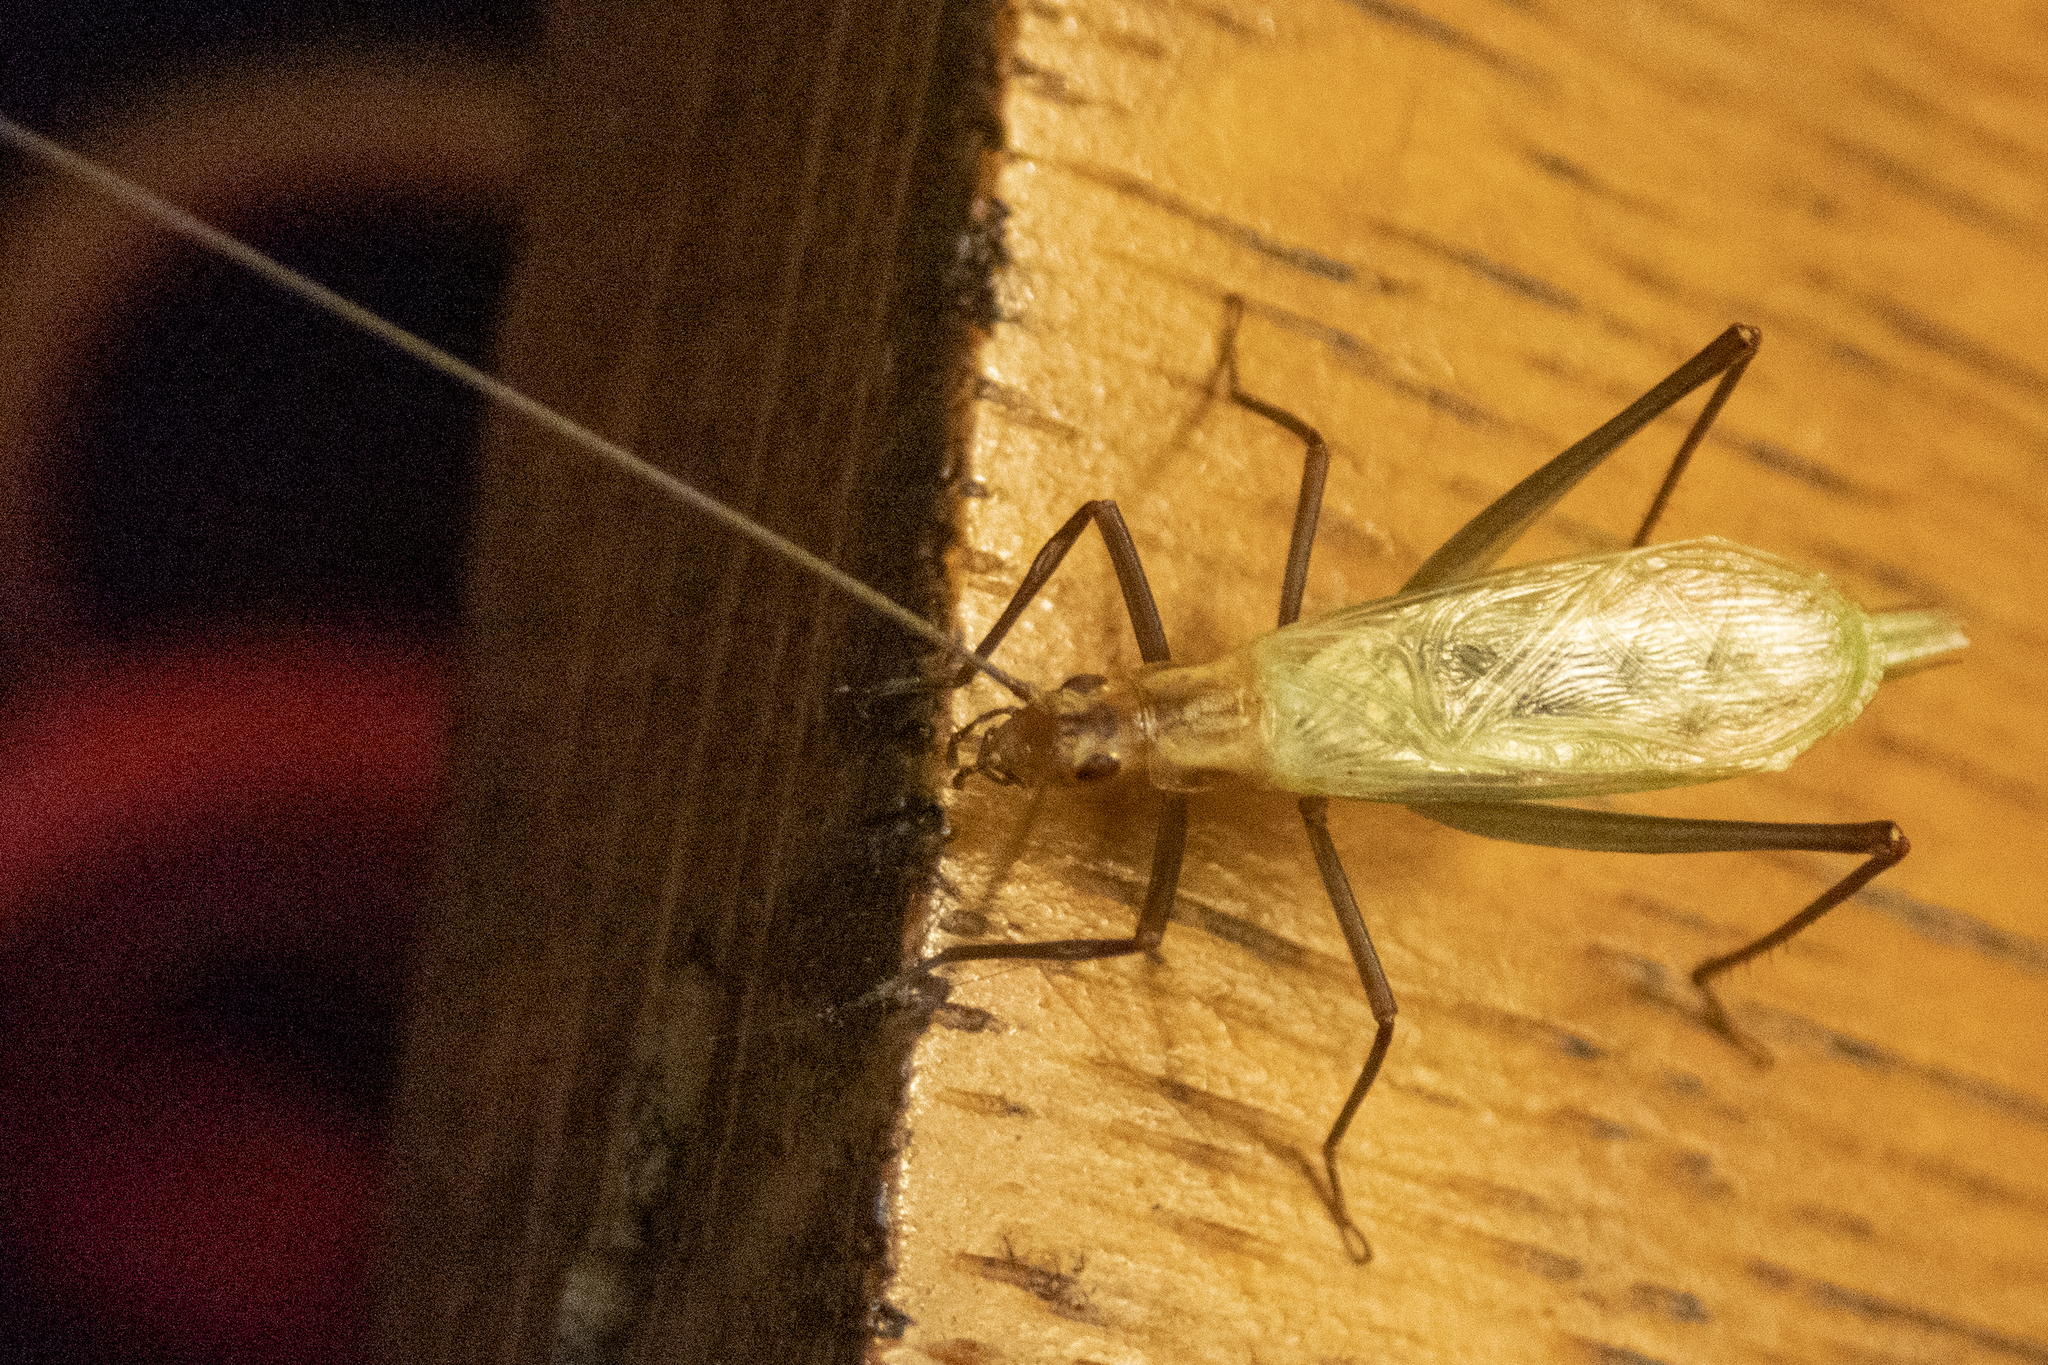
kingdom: Animalia
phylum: Arthropoda
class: Insecta
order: Orthoptera
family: Gryllidae
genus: Oecanthus
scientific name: Oecanthus pini
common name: Pine tree cricket
